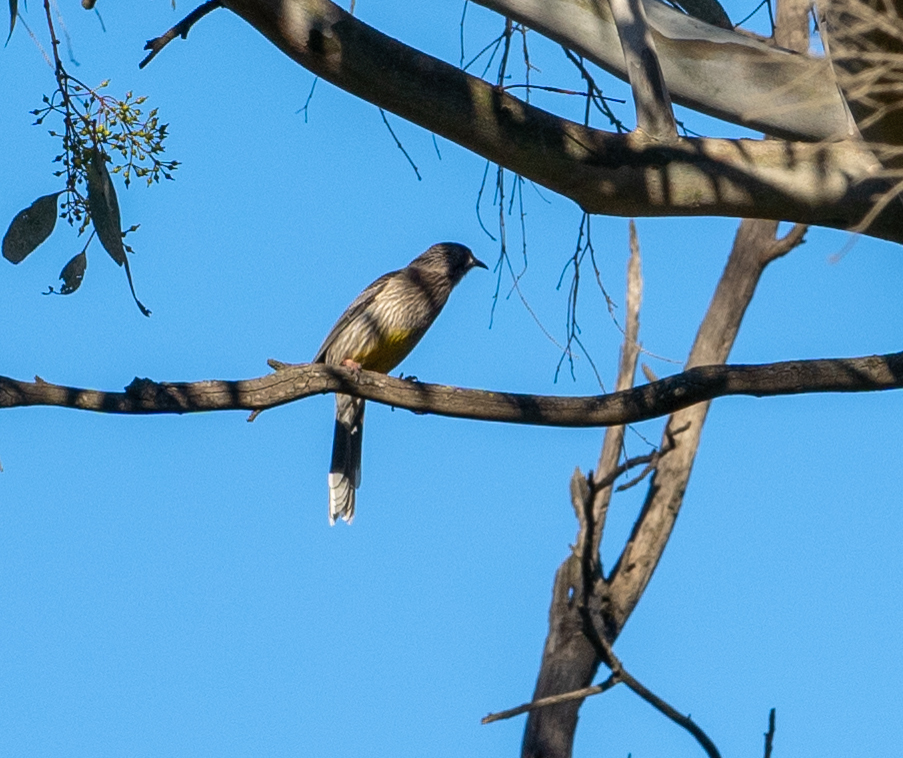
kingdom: Animalia
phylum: Chordata
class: Aves
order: Passeriformes
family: Meliphagidae
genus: Anthochaera
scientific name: Anthochaera carunculata
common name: Red wattlebird
